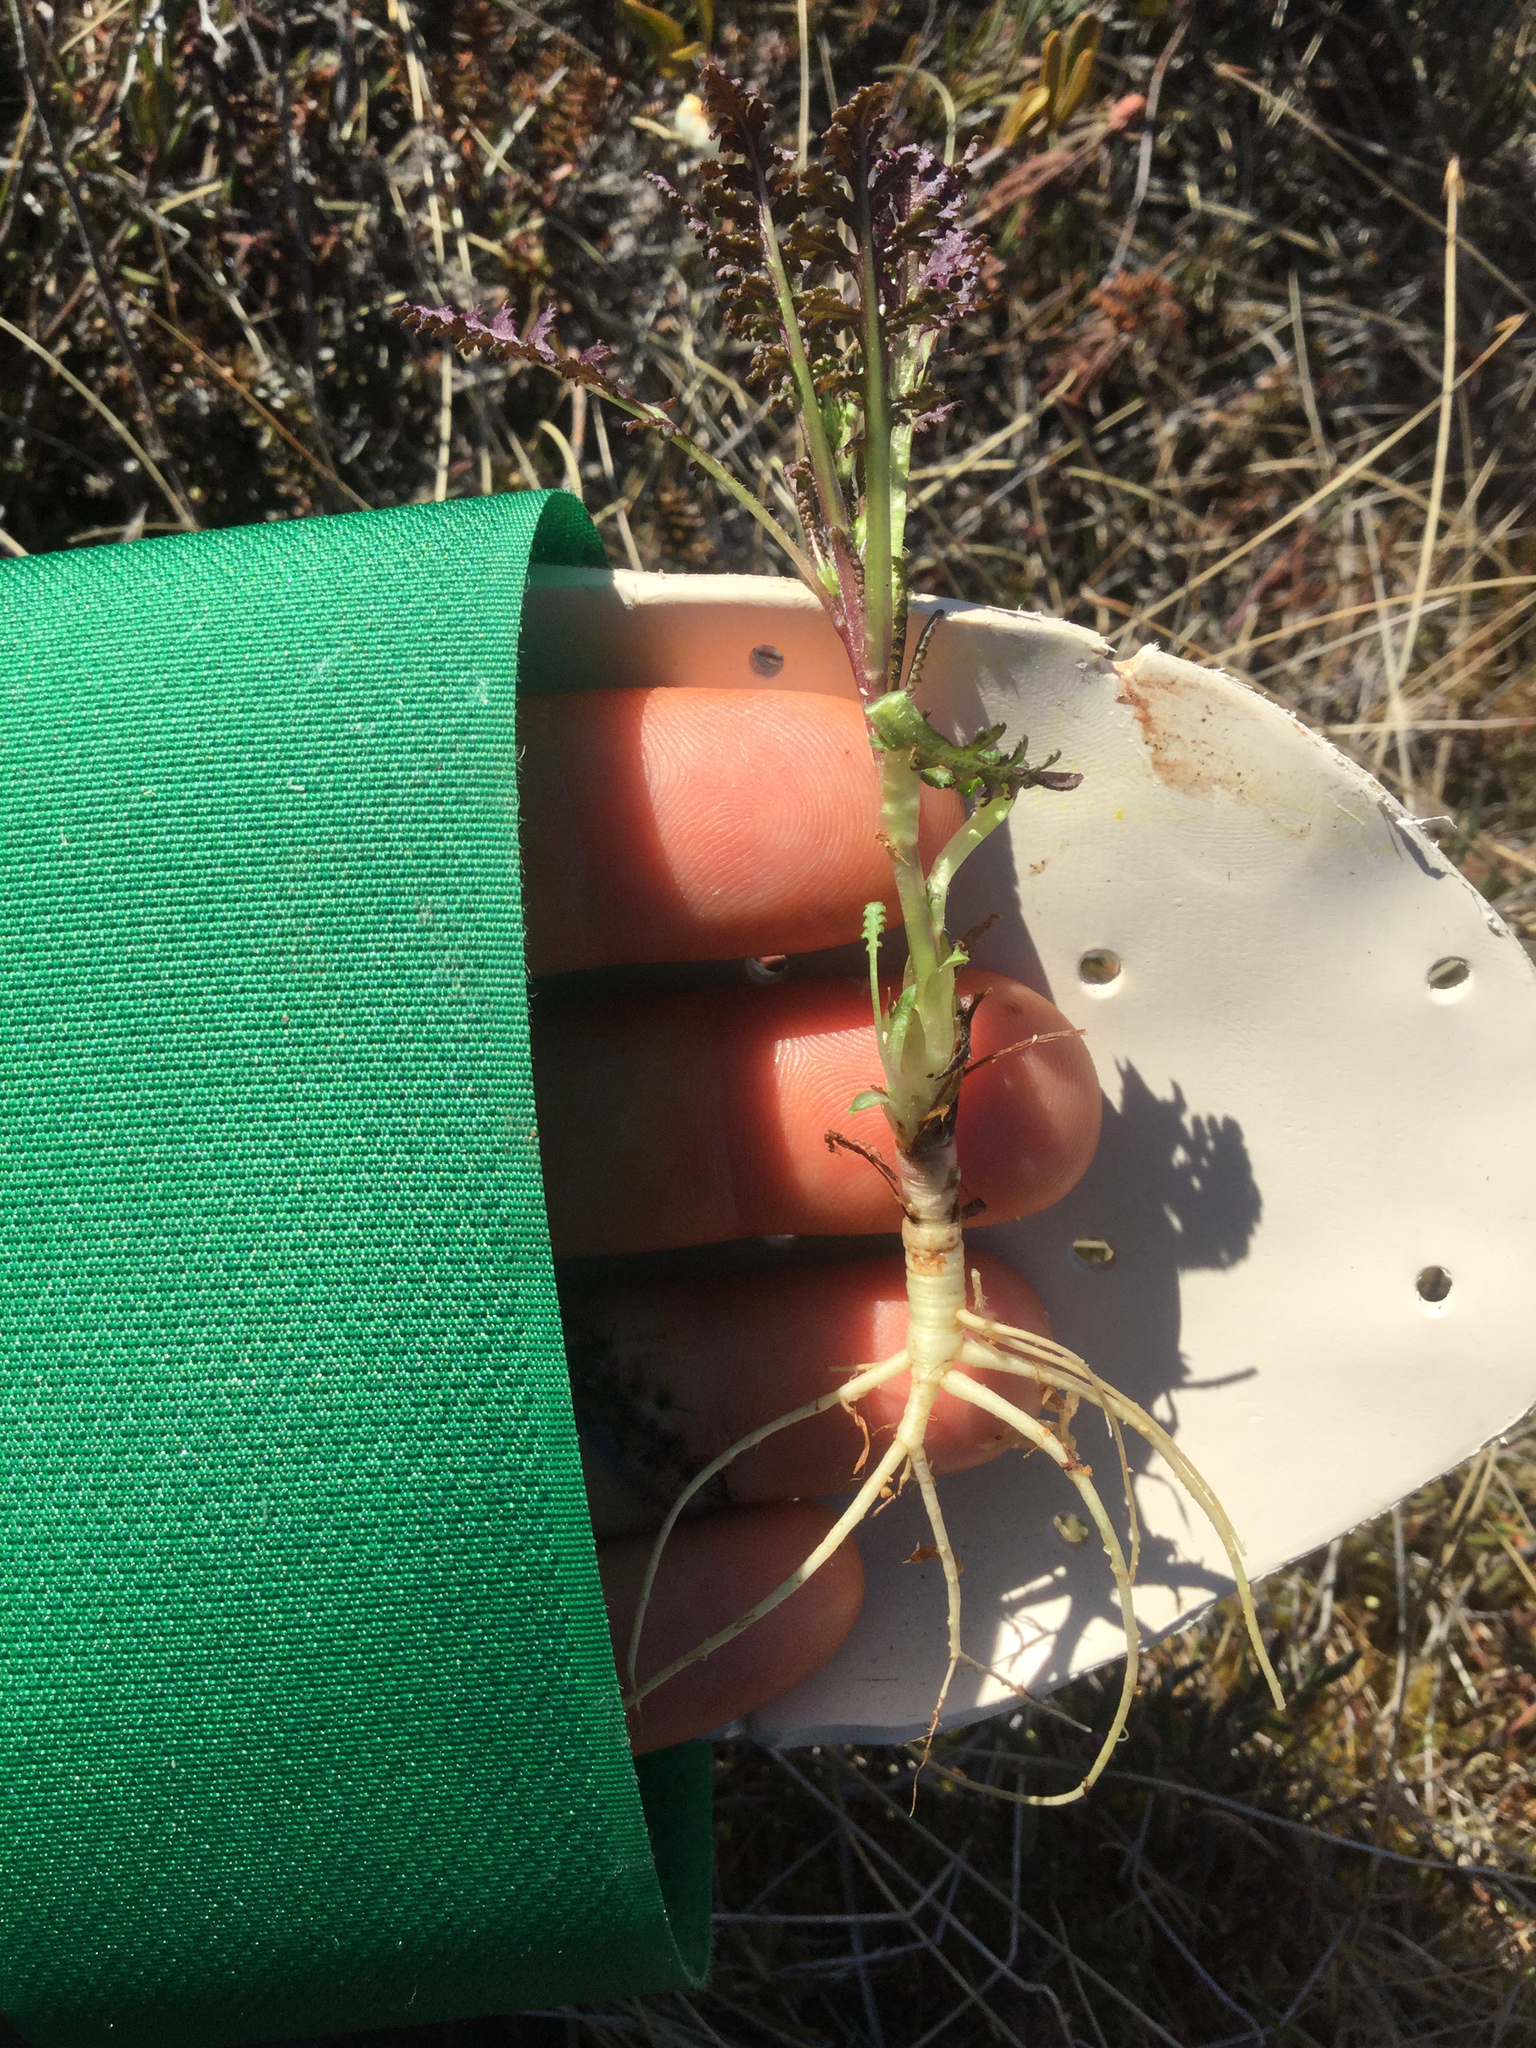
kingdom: Plantae
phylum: Tracheophyta
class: Magnoliopsida
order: Lamiales
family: Orobanchaceae
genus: Pedicularis
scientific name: Pedicularis labradorica
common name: Labrador lousewort
